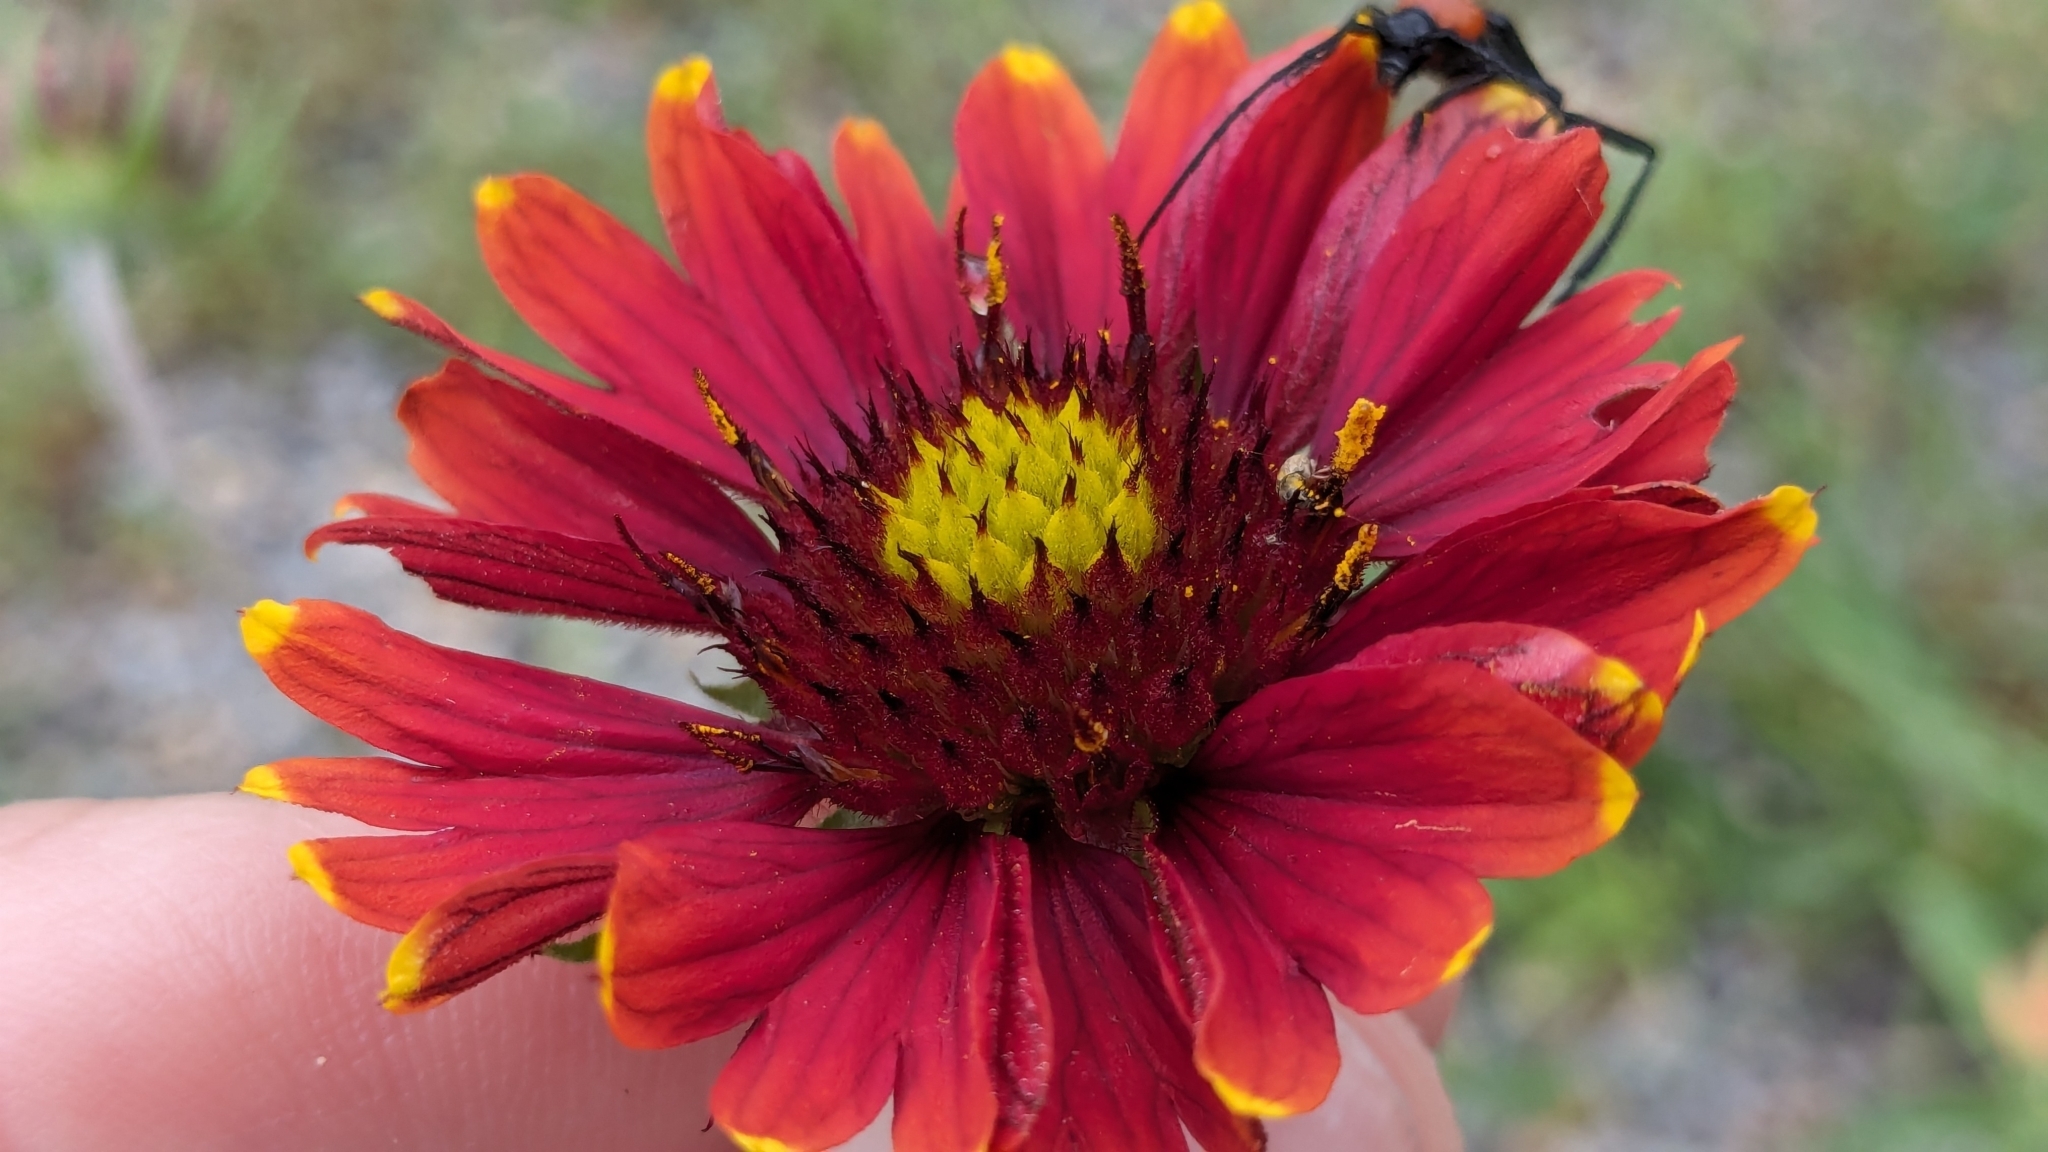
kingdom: Animalia
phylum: Arthropoda
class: Insecta
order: Coleoptera
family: Cerambycidae
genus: Batyle
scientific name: Batyle ignicollis
